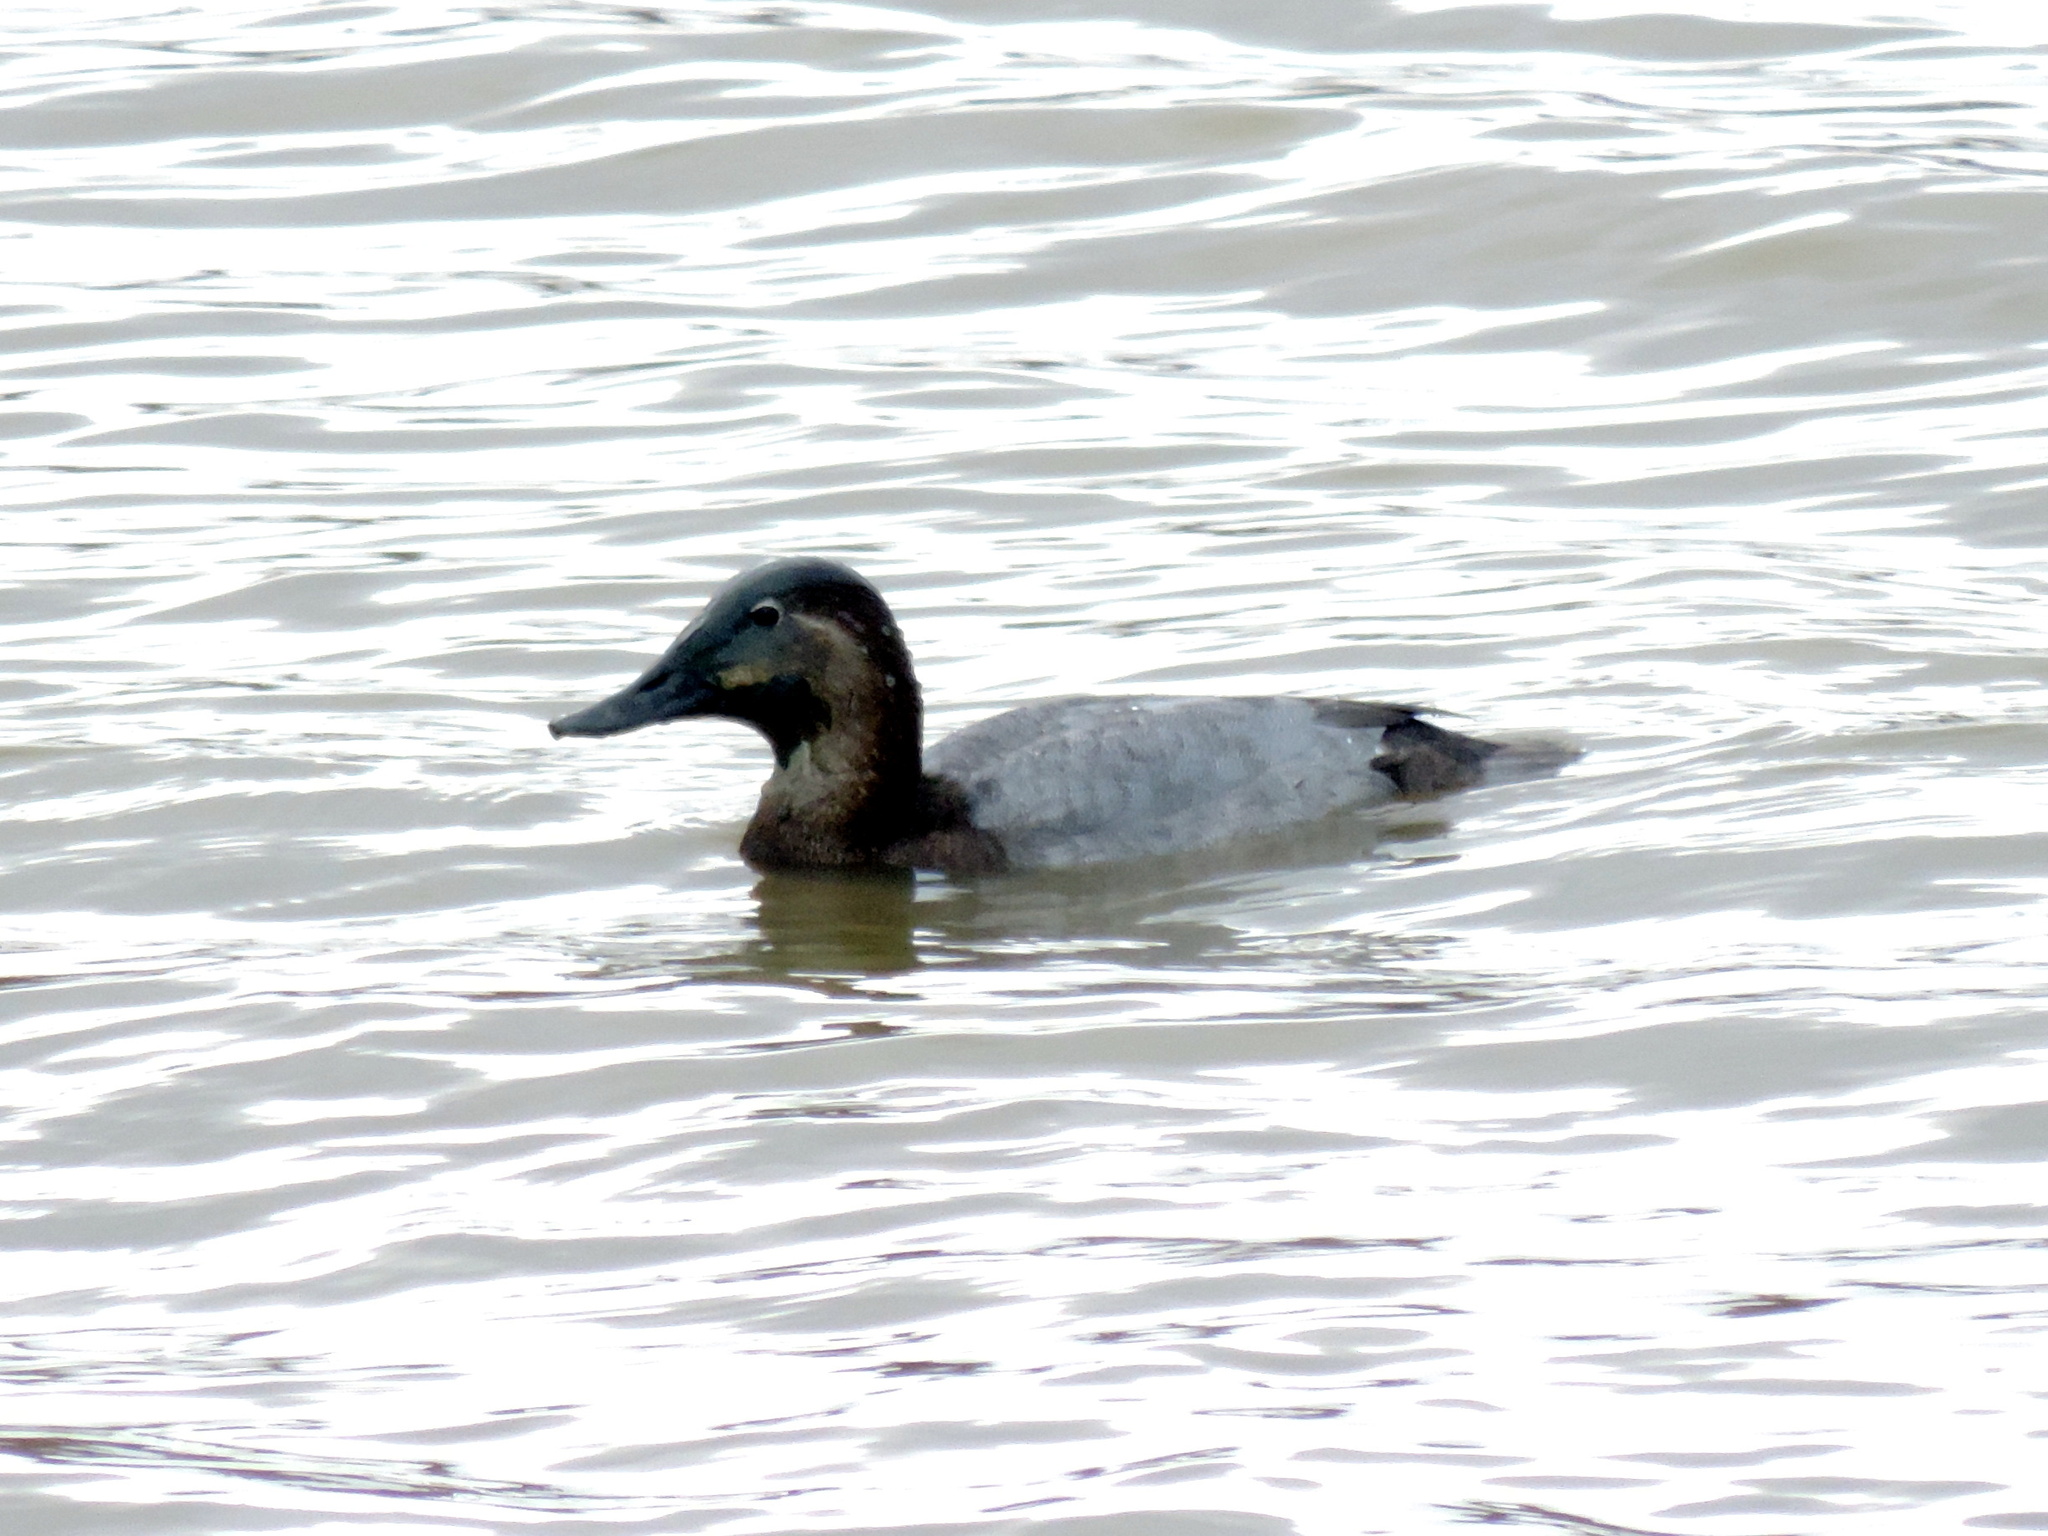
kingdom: Animalia
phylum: Chordata
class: Aves
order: Anseriformes
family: Anatidae
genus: Aythya
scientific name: Aythya ferina
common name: Common pochard
